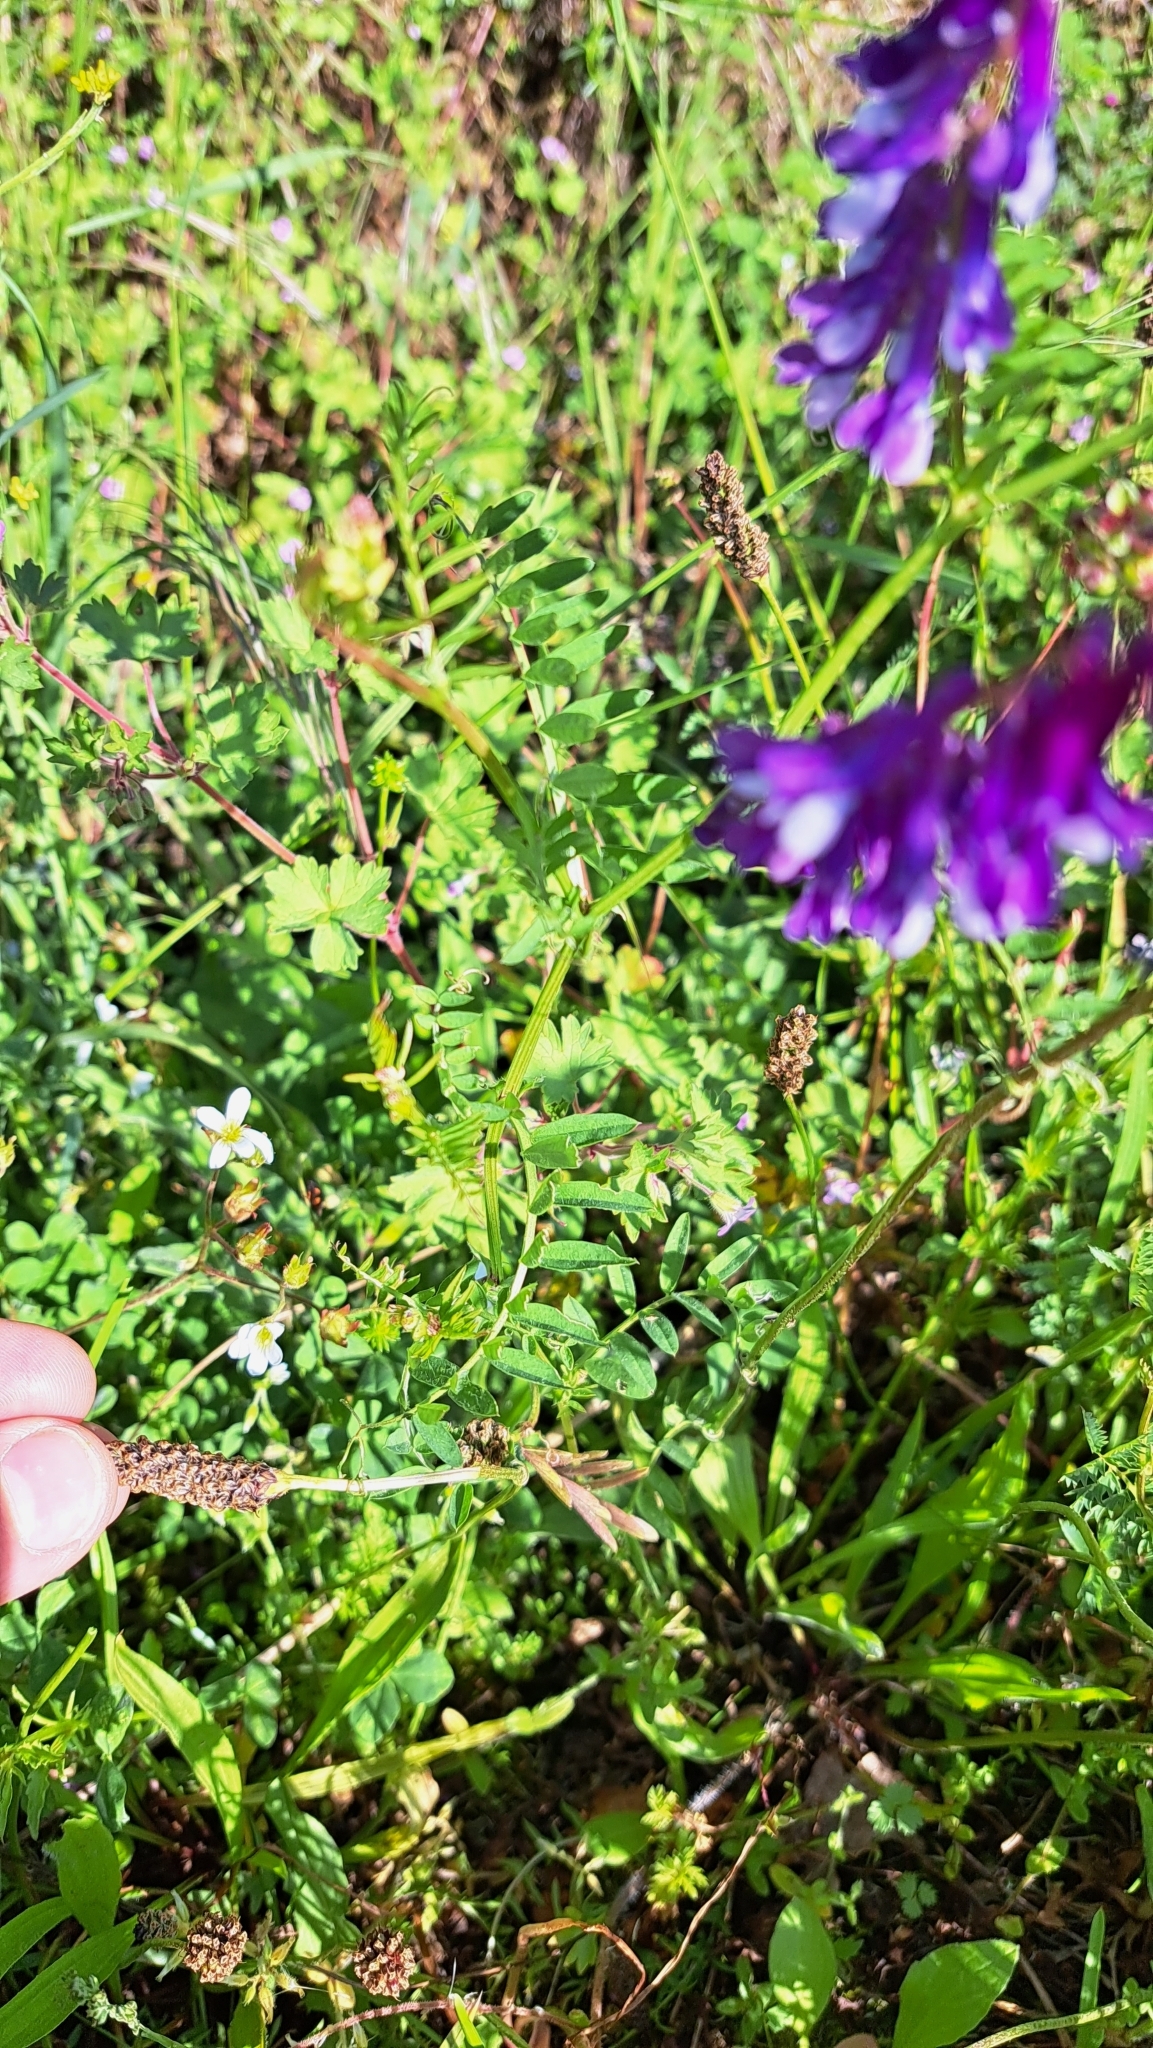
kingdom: Plantae
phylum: Tracheophyta
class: Magnoliopsida
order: Fabales
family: Fabaceae
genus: Vicia
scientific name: Vicia villosa
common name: Fodder vetch
